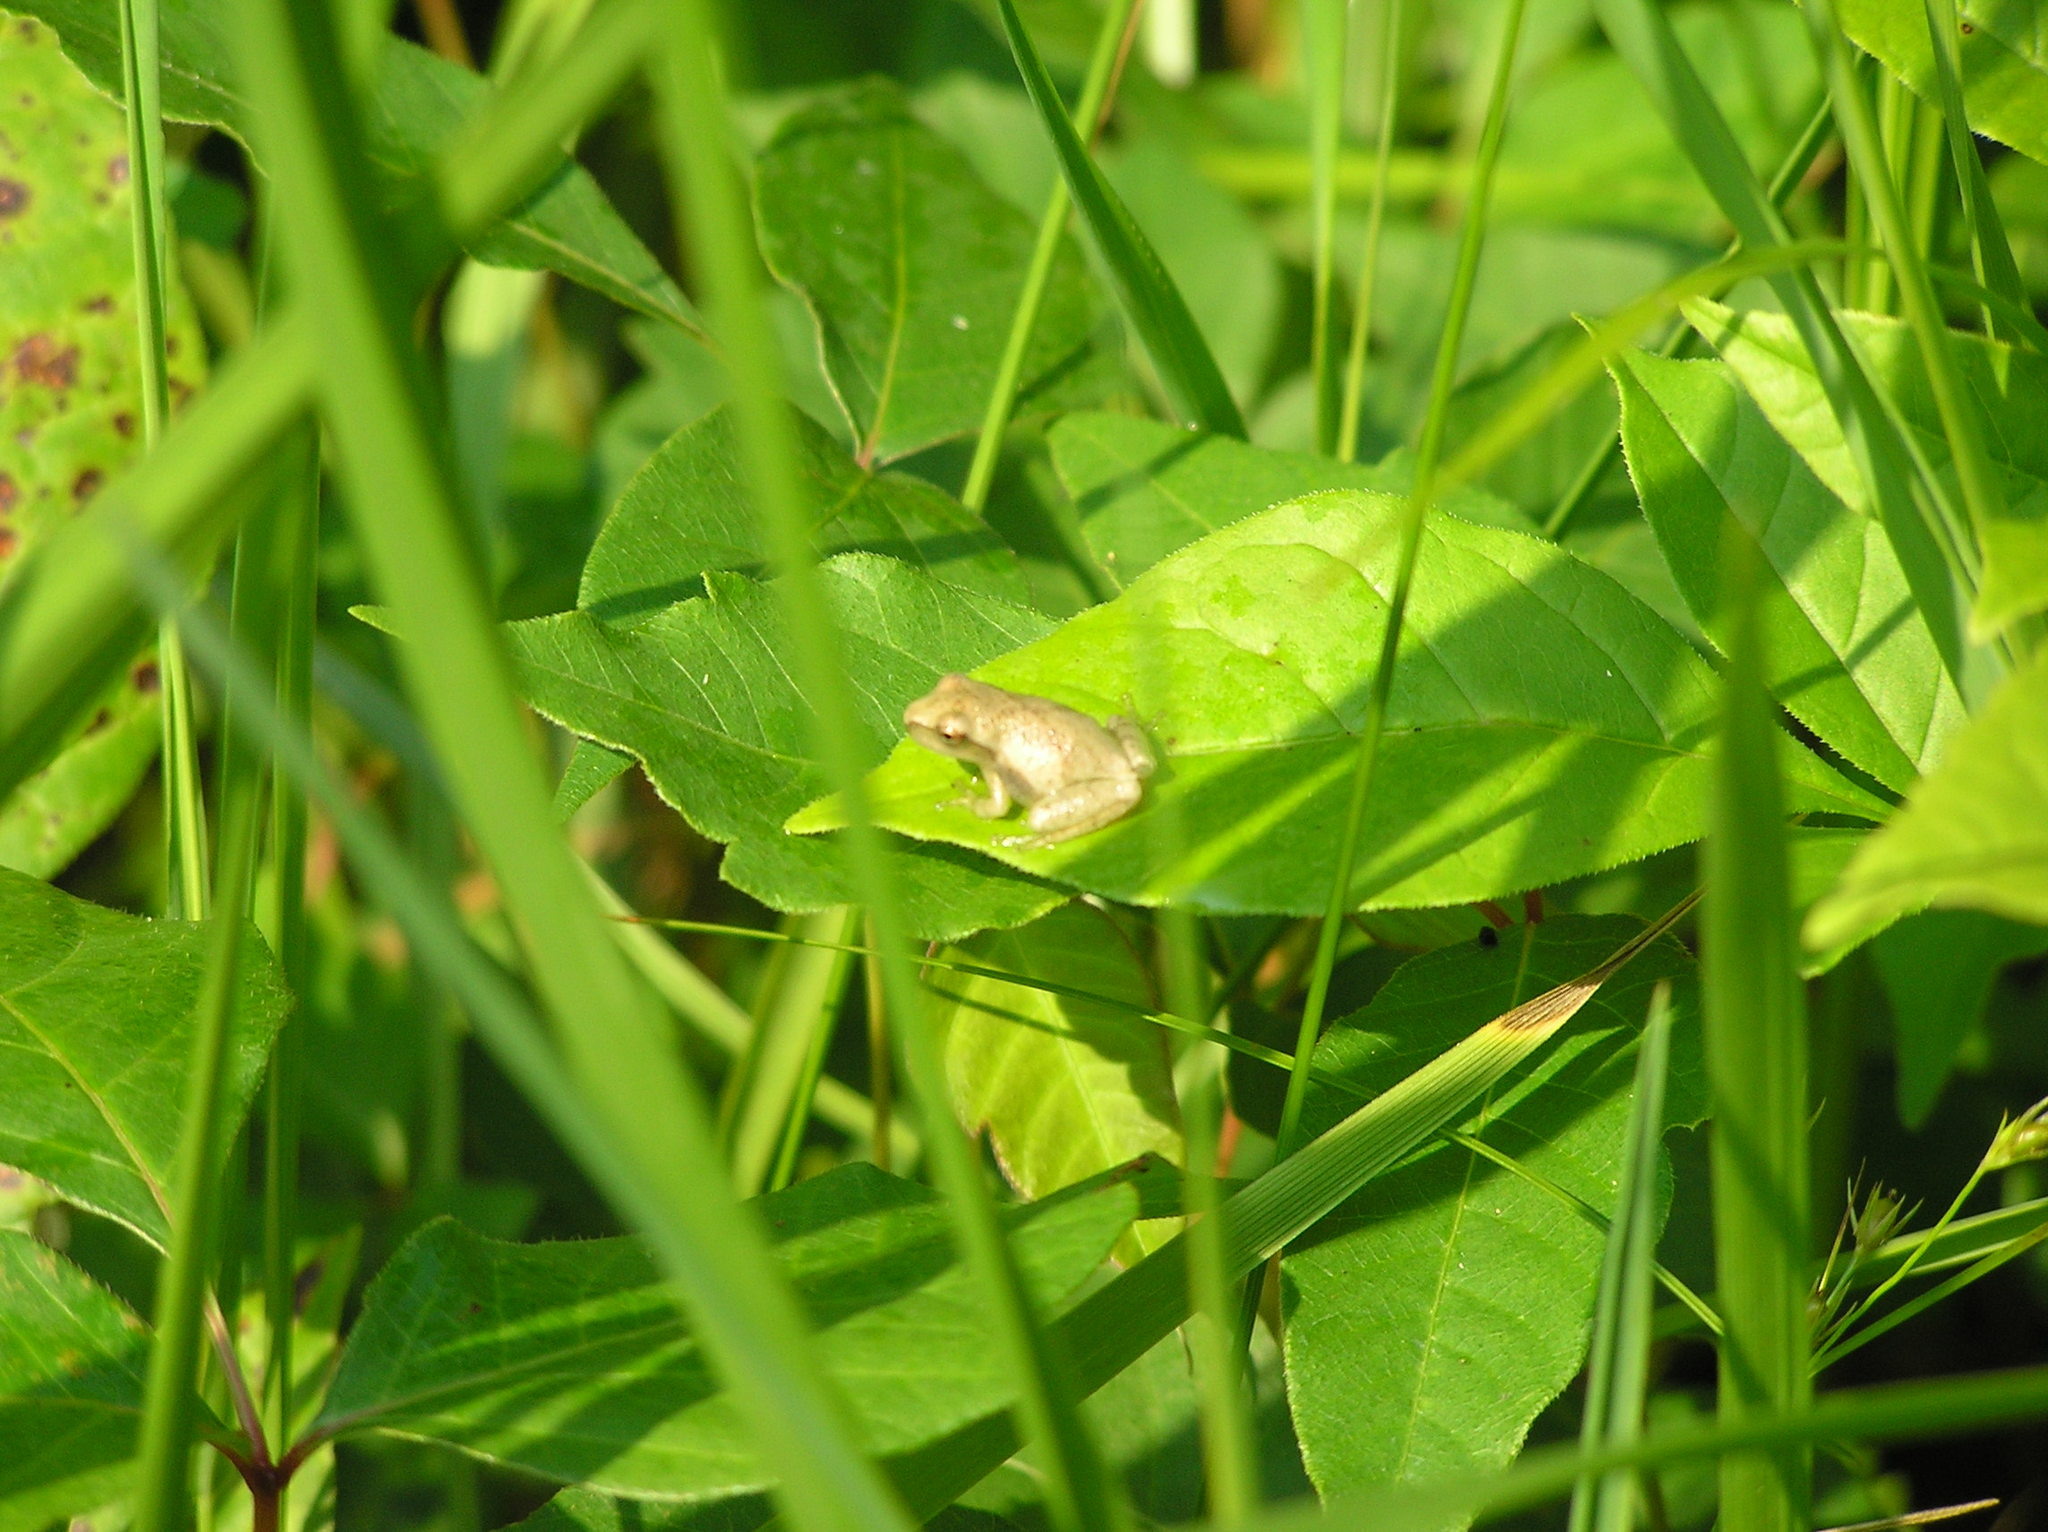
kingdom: Animalia
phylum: Chordata
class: Amphibia
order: Anura
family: Hylidae
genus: Pseudacris
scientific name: Pseudacris crucifer
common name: Spring peeper
